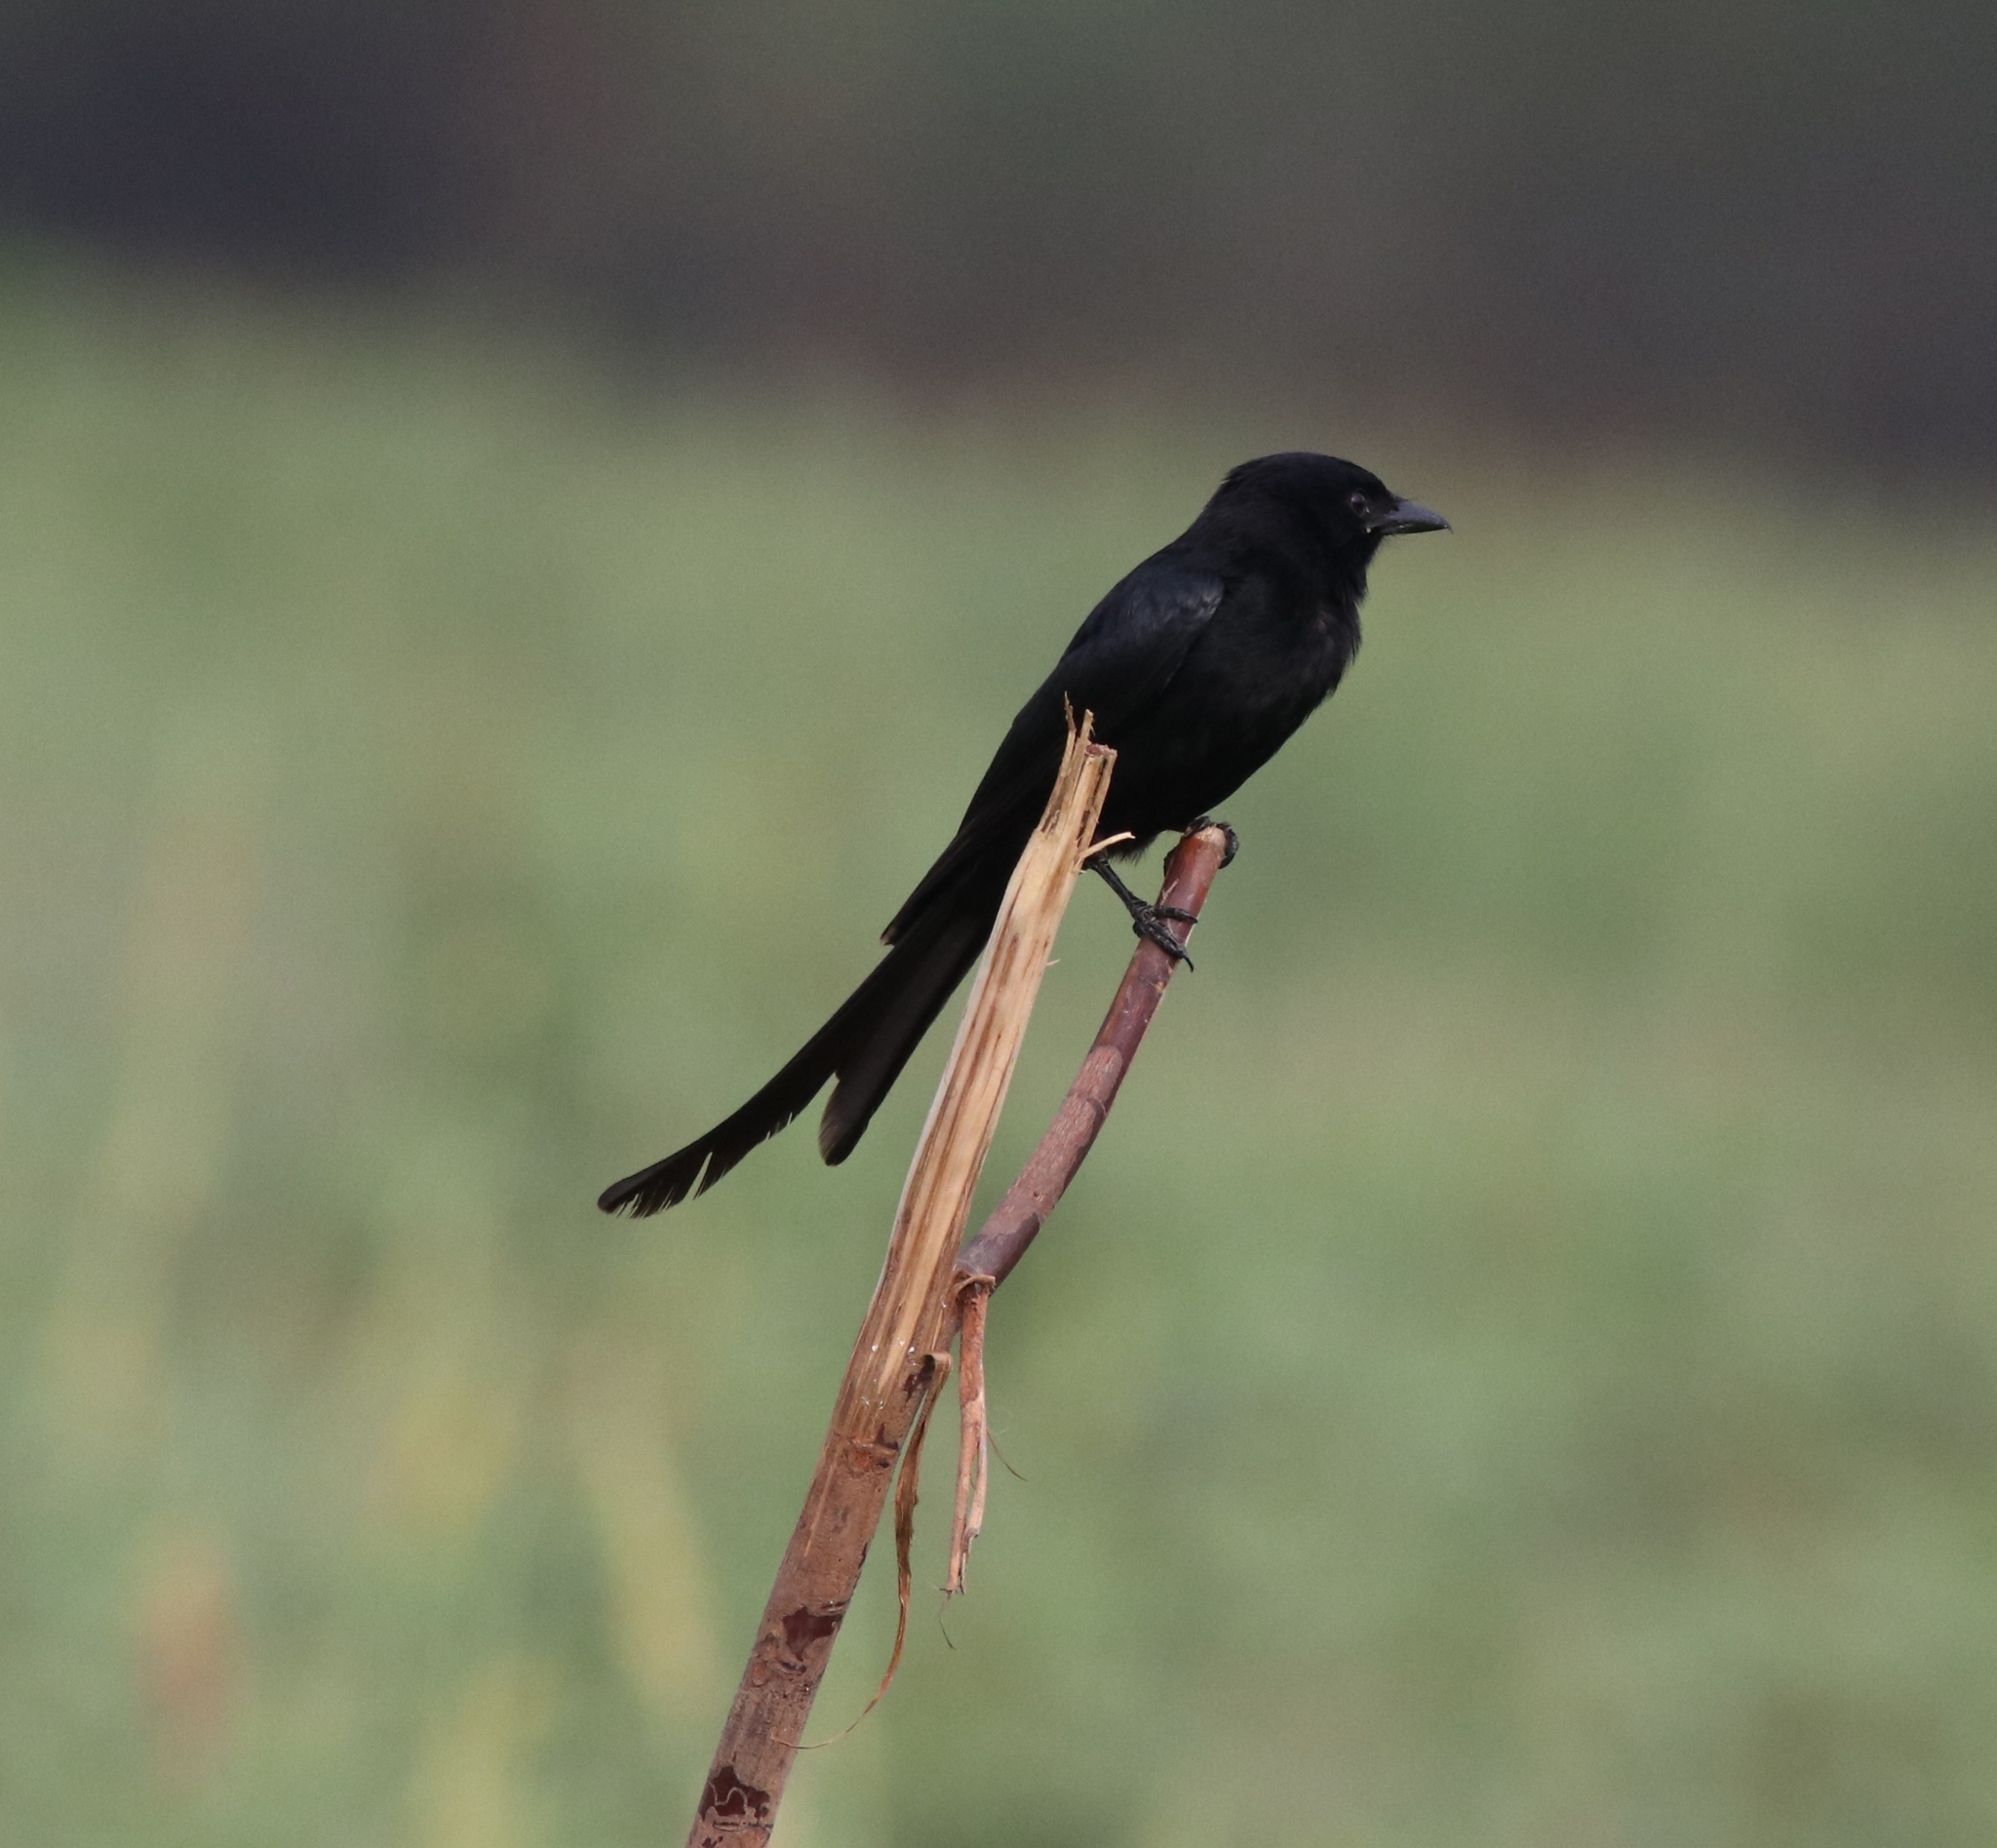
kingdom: Animalia
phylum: Chordata
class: Aves
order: Passeriformes
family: Dicruridae
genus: Dicrurus
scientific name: Dicrurus macrocercus
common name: Black drongo
